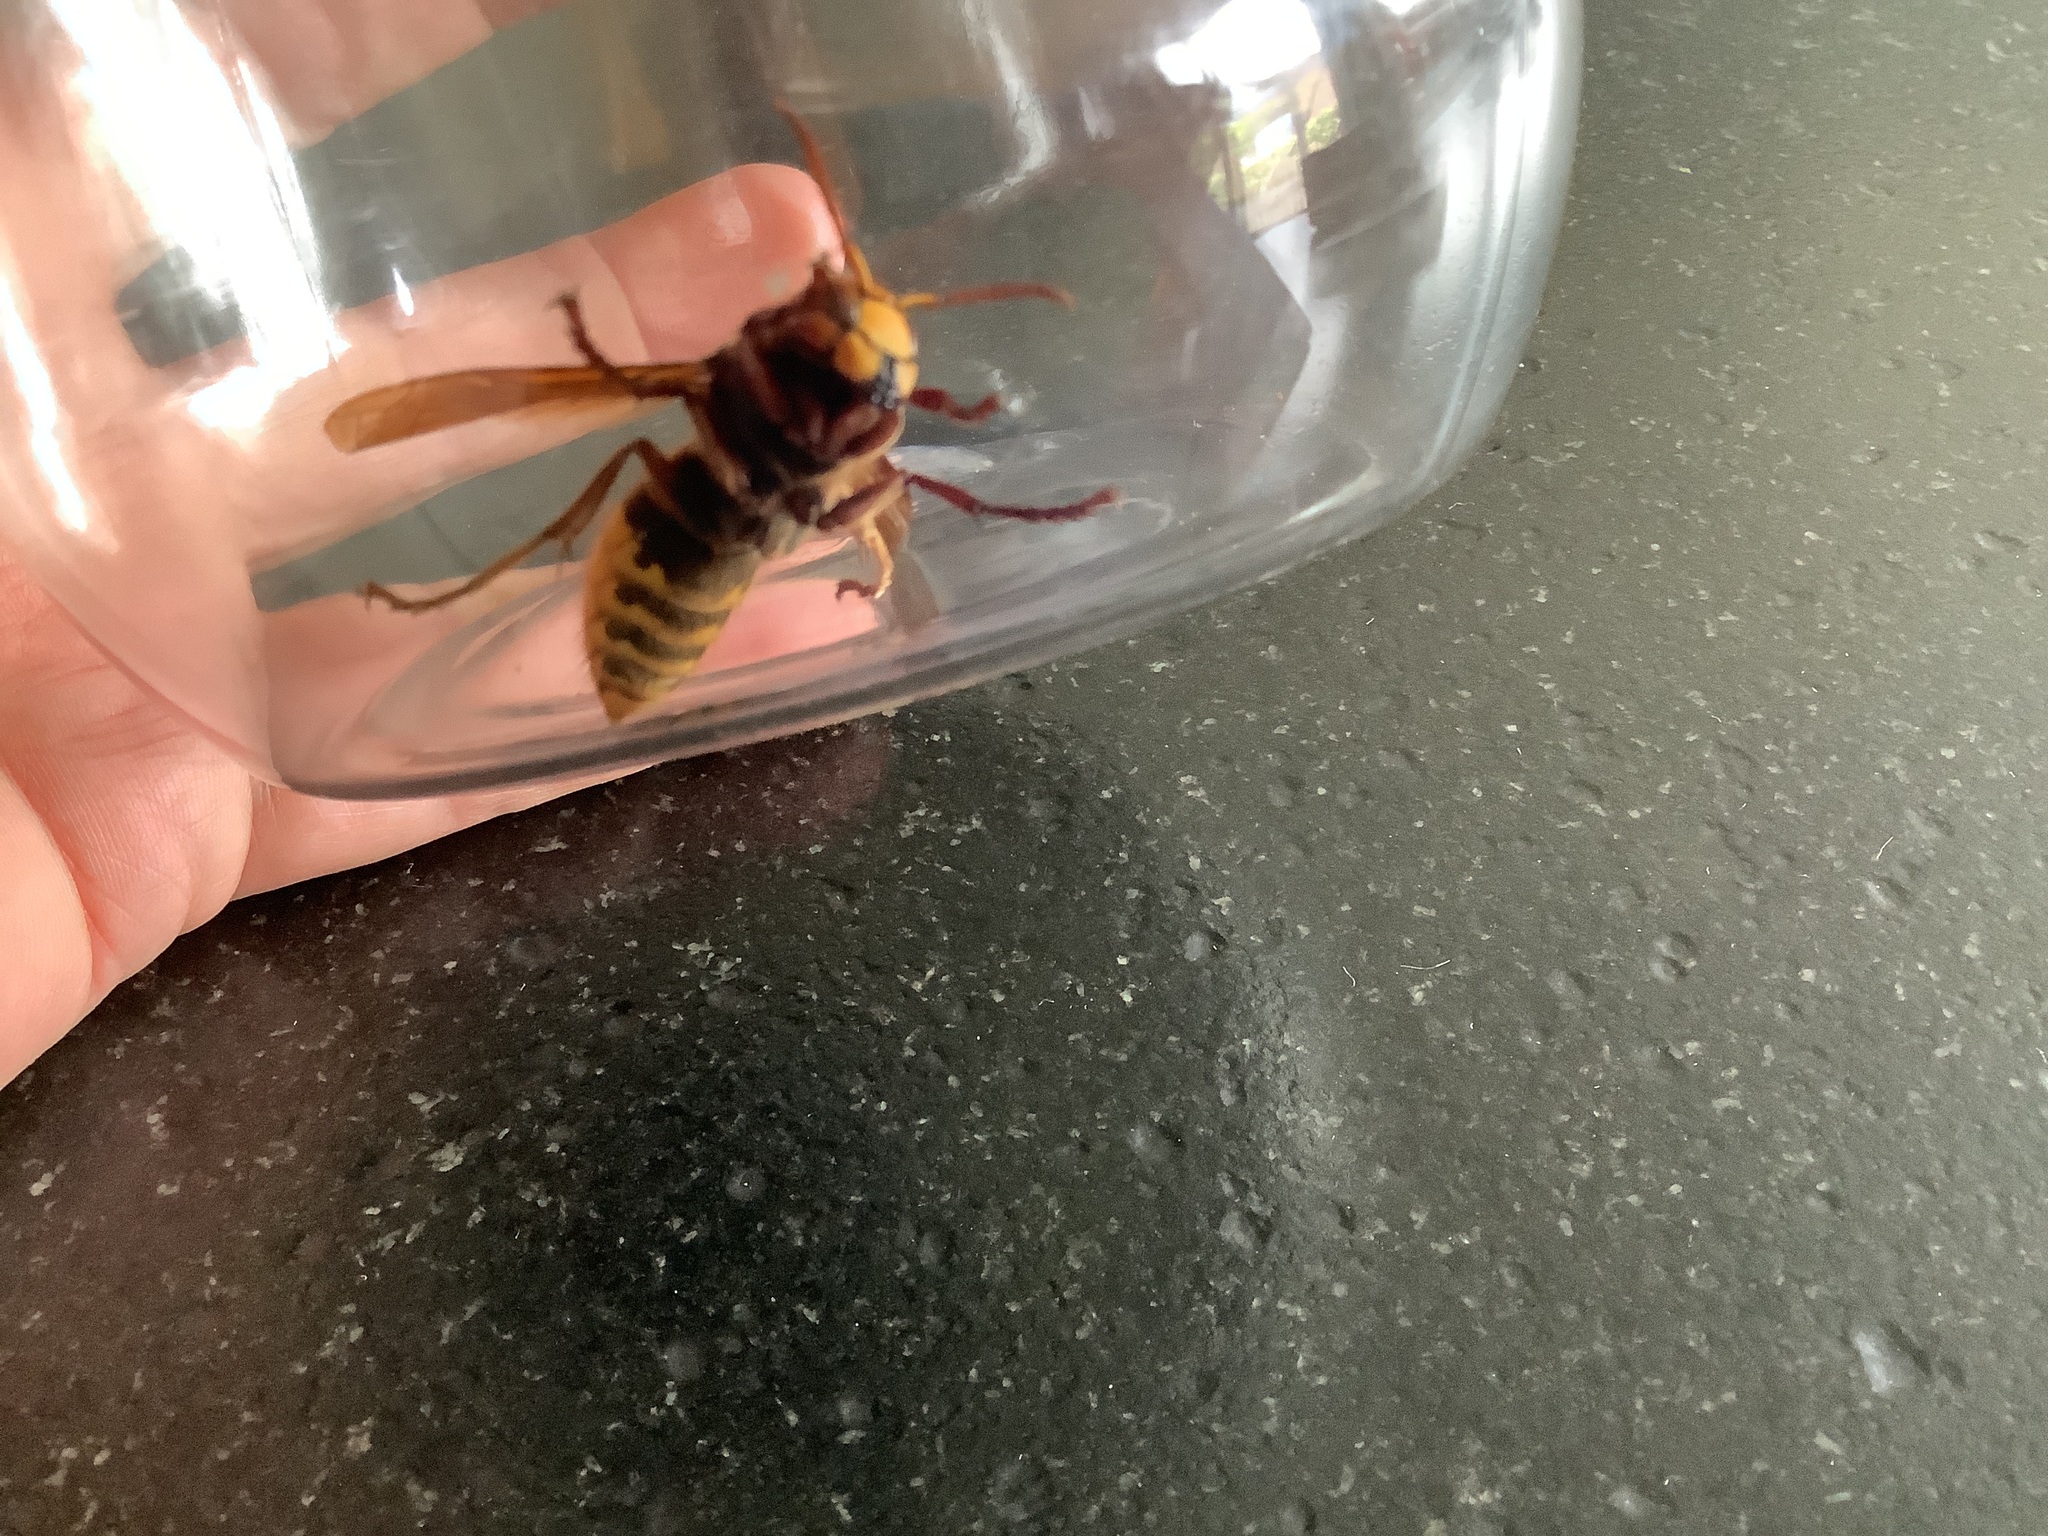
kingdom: Animalia
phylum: Arthropoda
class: Insecta
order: Hymenoptera
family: Vespidae
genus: Vespa
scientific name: Vespa crabro
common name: Hornet
